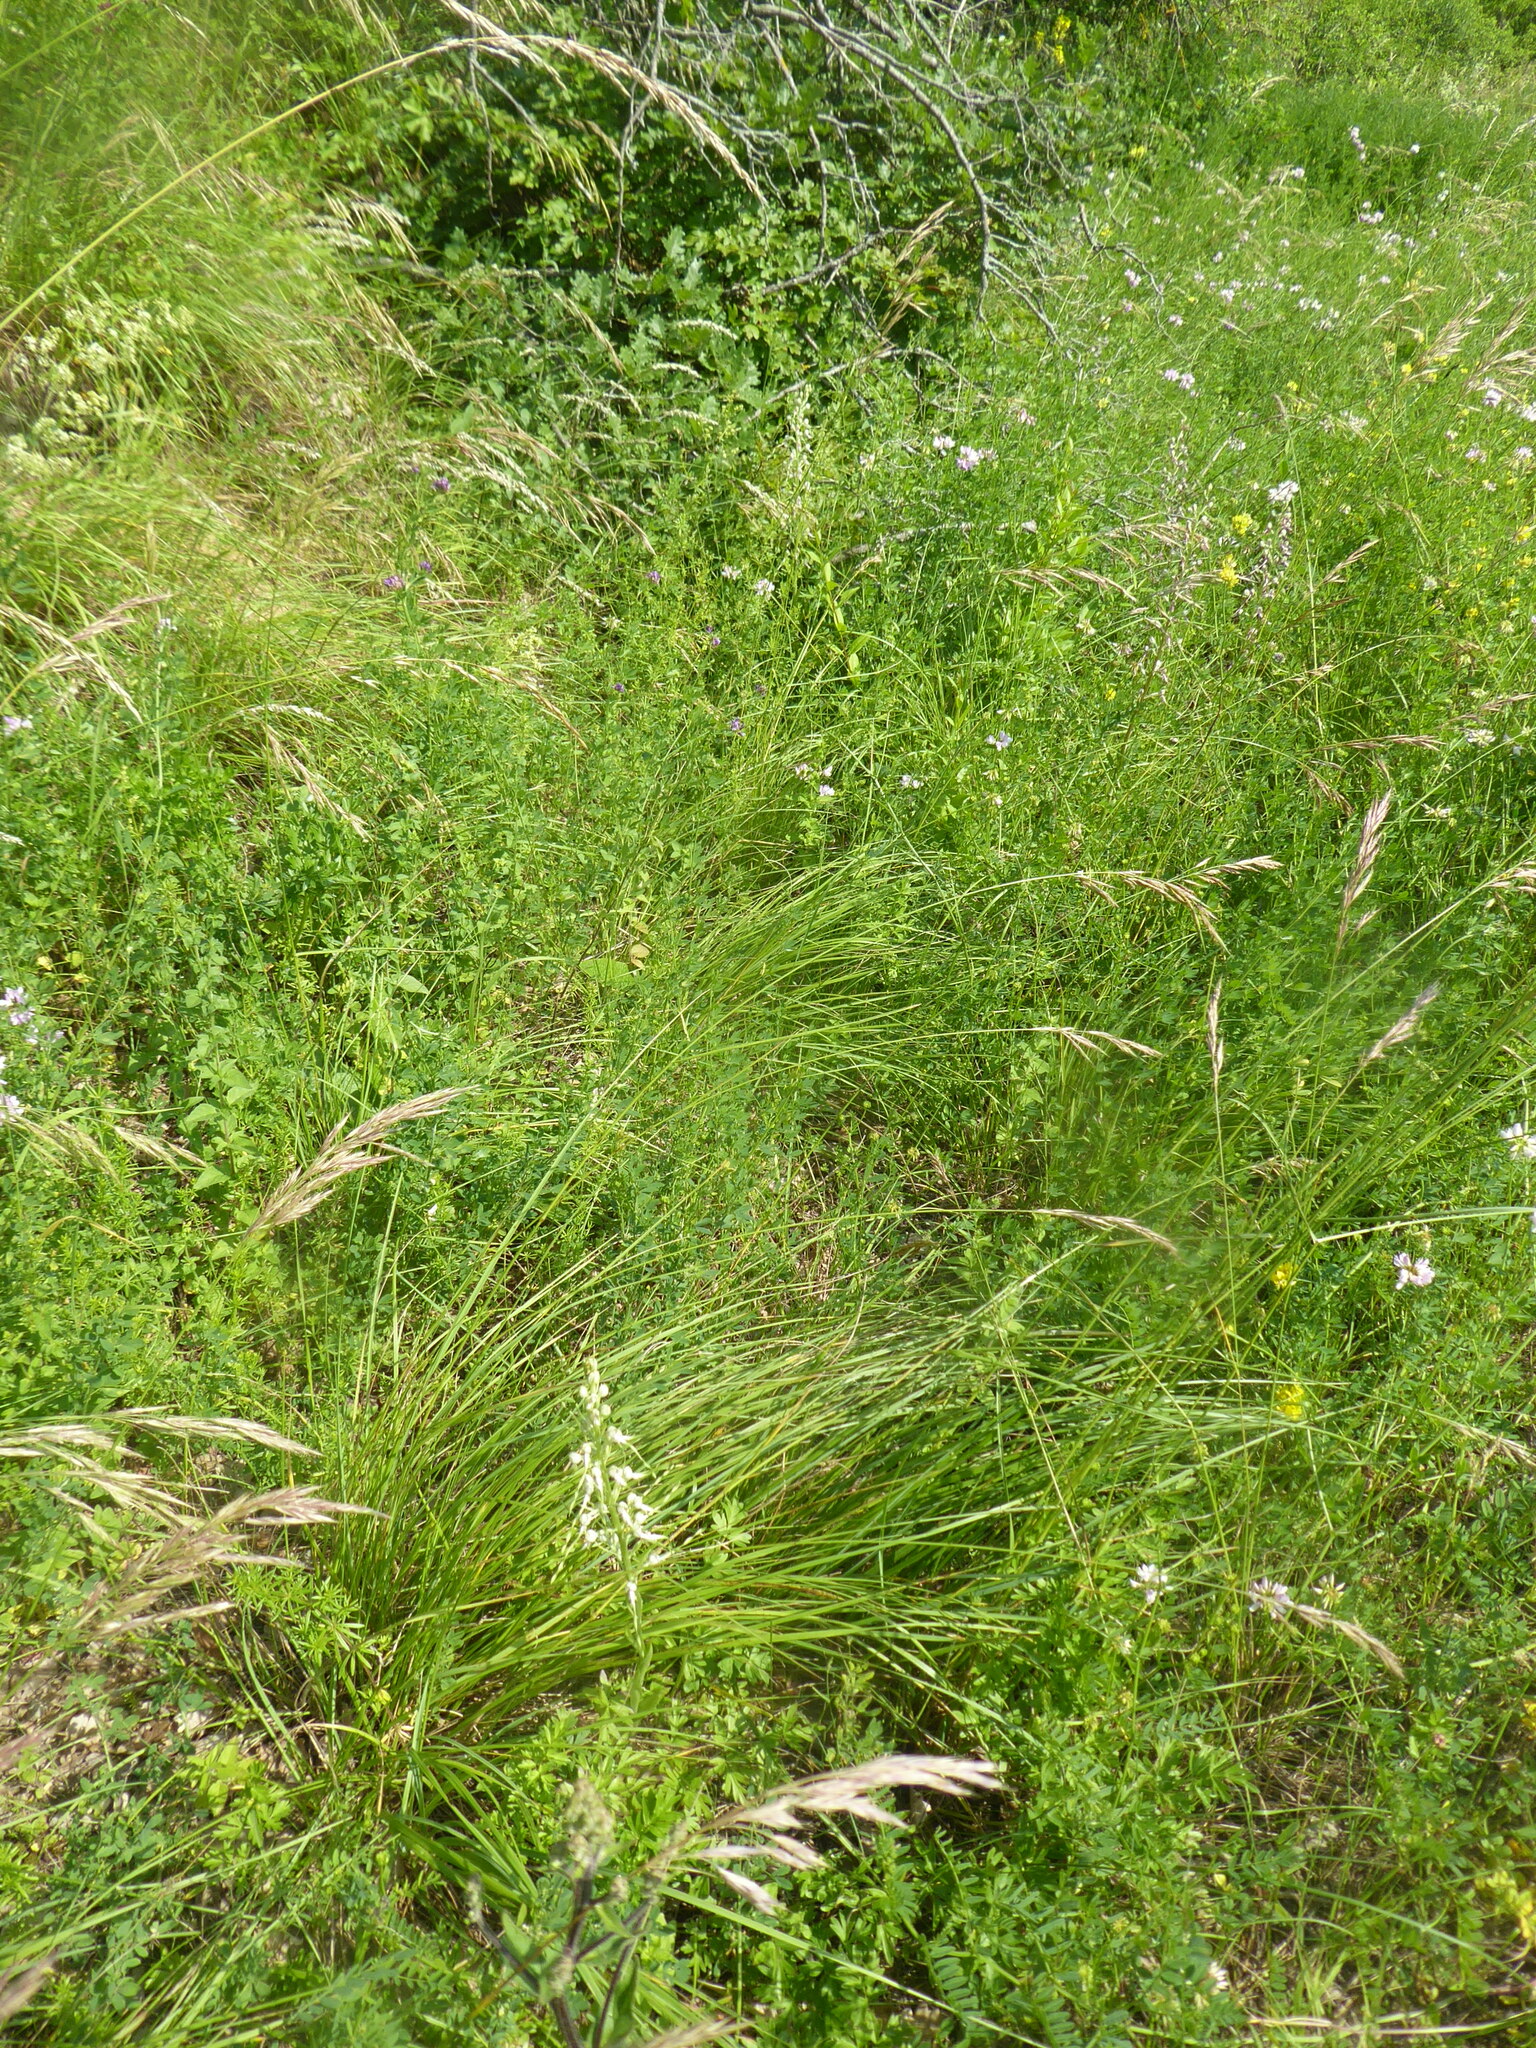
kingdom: Plantae
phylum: Tracheophyta
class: Liliopsida
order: Asparagales
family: Orchidaceae
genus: Himantoglossum
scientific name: Himantoglossum adriaticum
